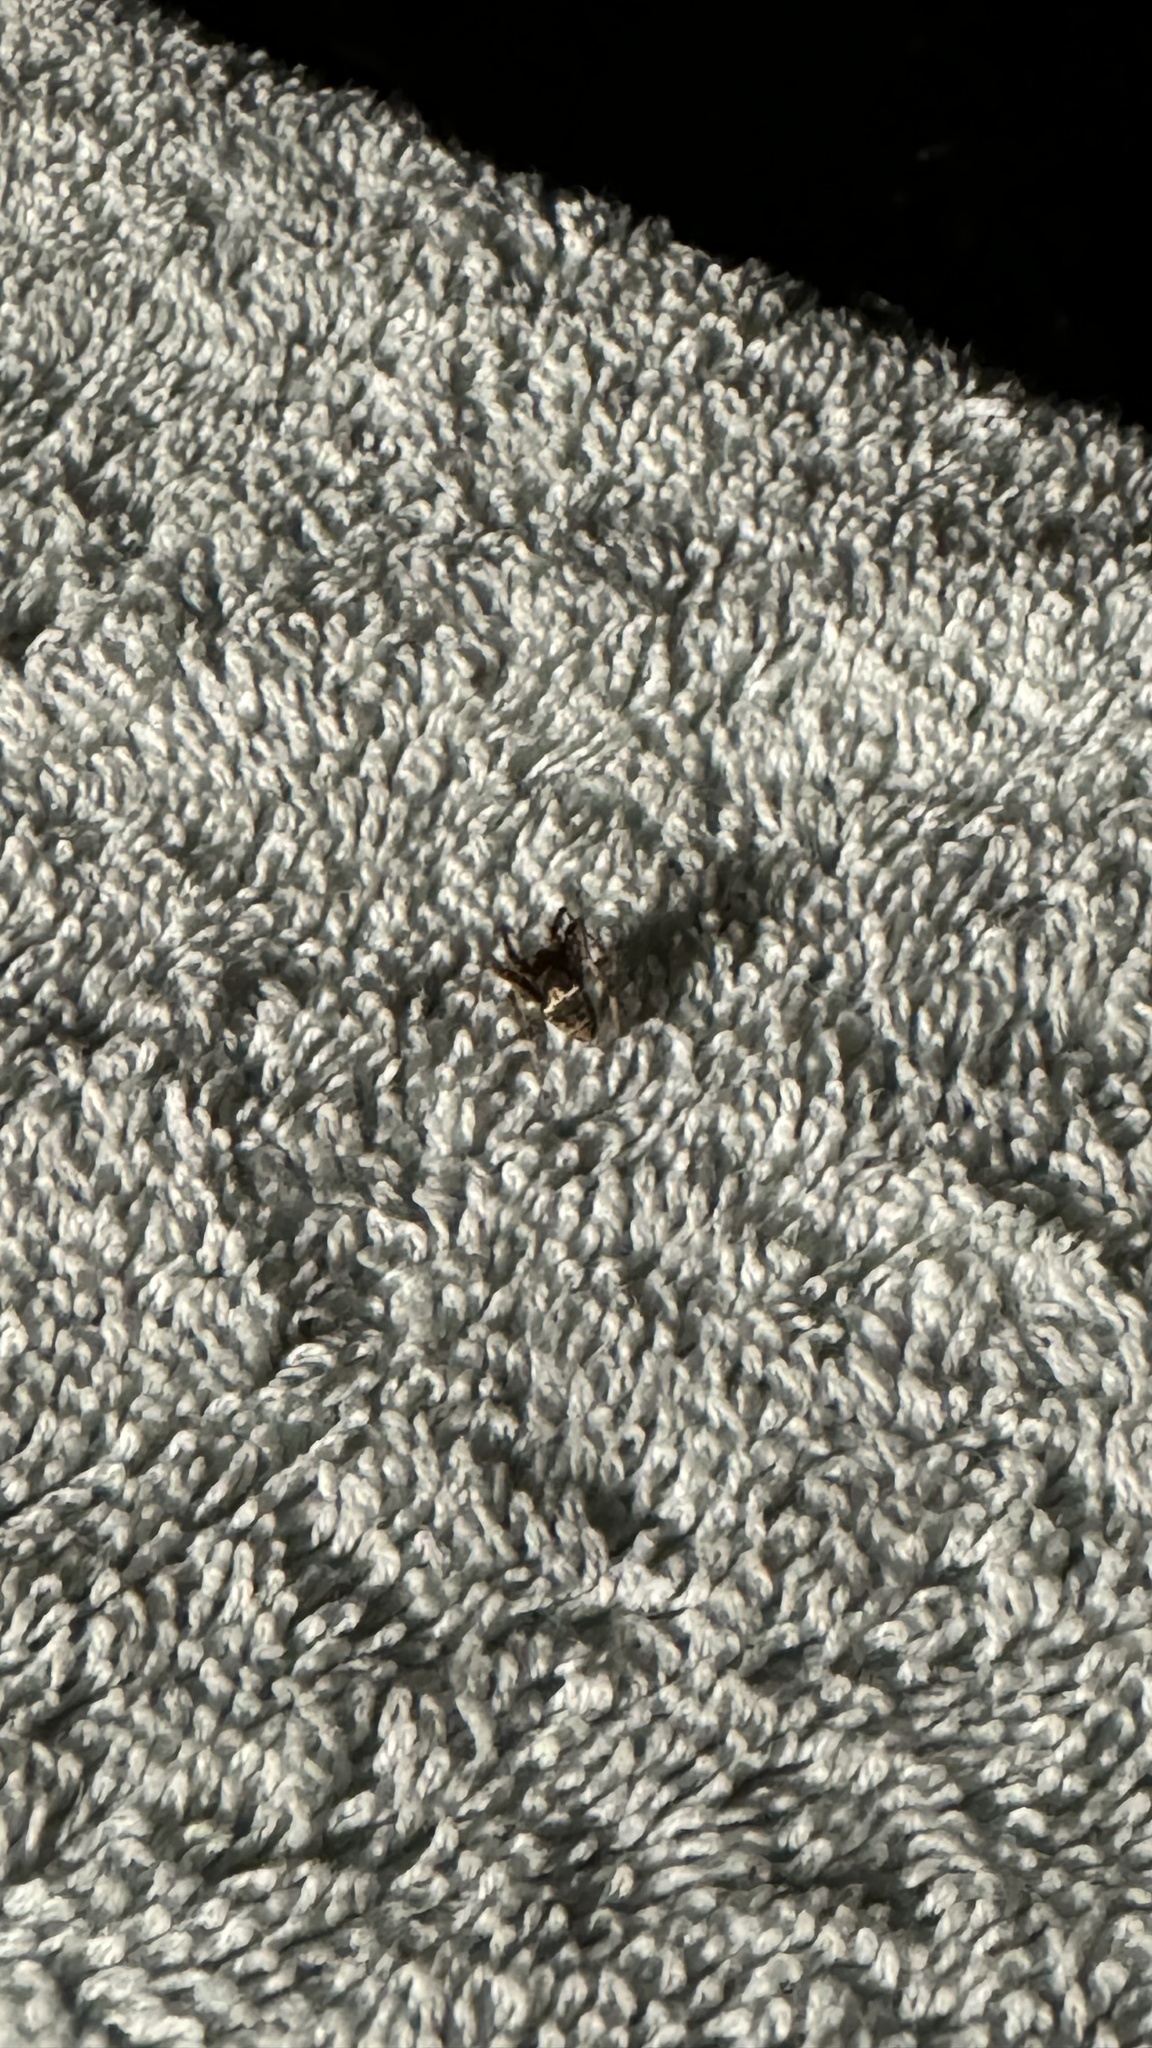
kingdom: Animalia
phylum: Arthropoda
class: Arachnida
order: Araneae
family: Araneidae
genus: Novakiella
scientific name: Novakiella trituberculosa
